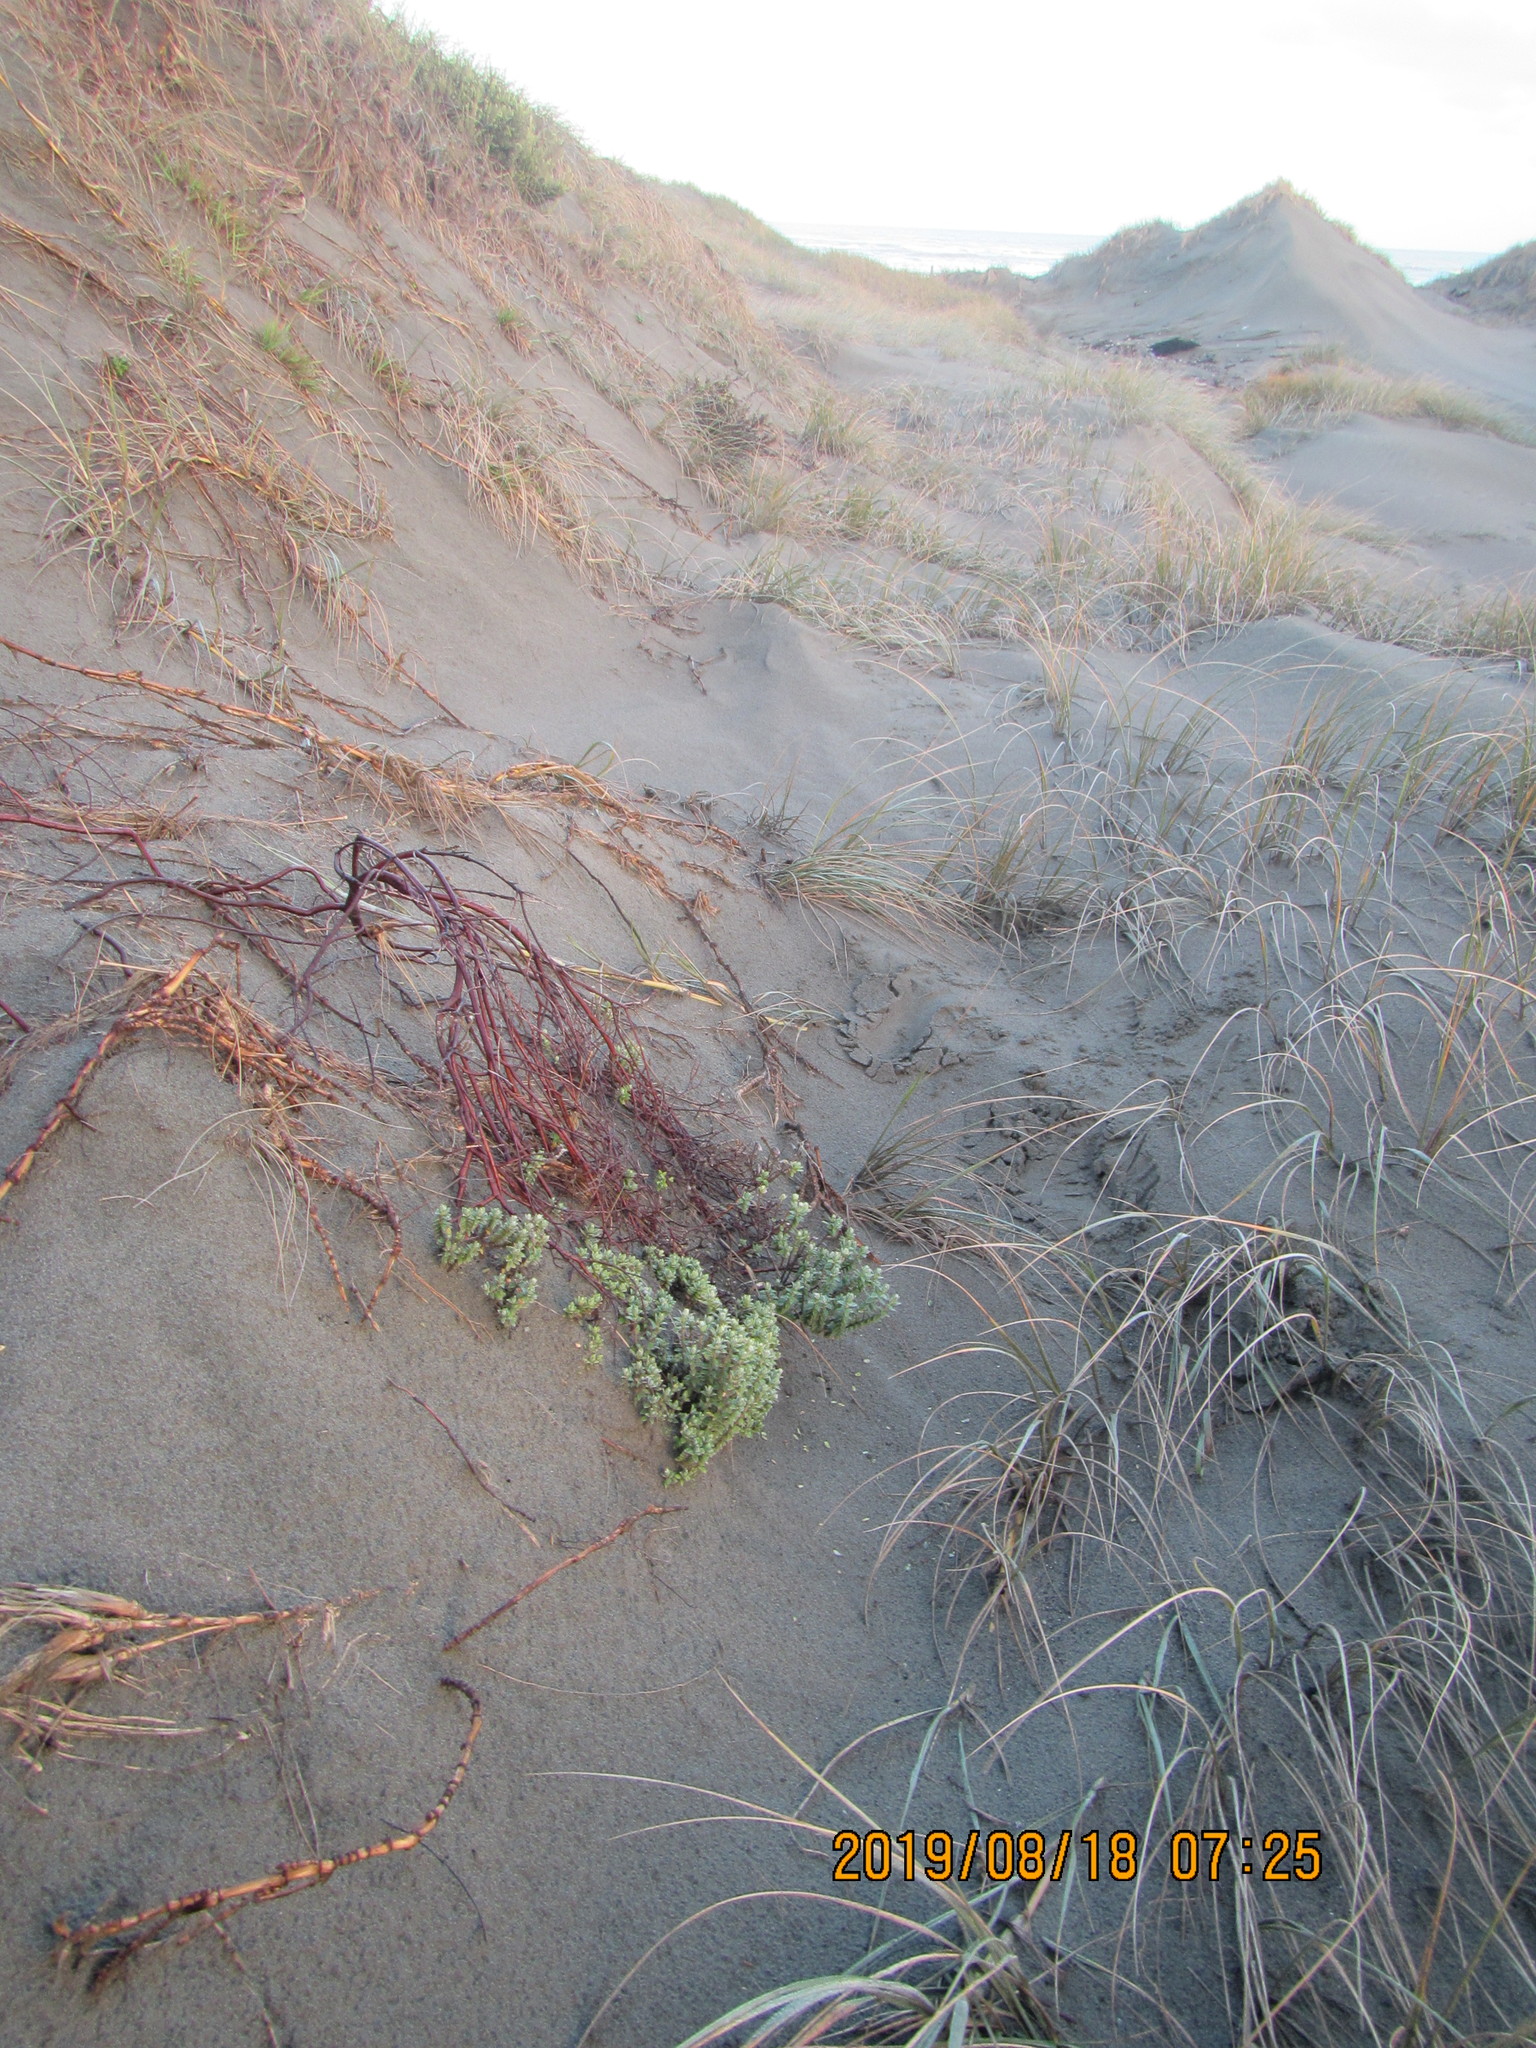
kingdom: Plantae
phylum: Tracheophyta
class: Magnoliopsida
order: Malvales
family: Thymelaeaceae
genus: Pimelea
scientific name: Pimelea villosa
